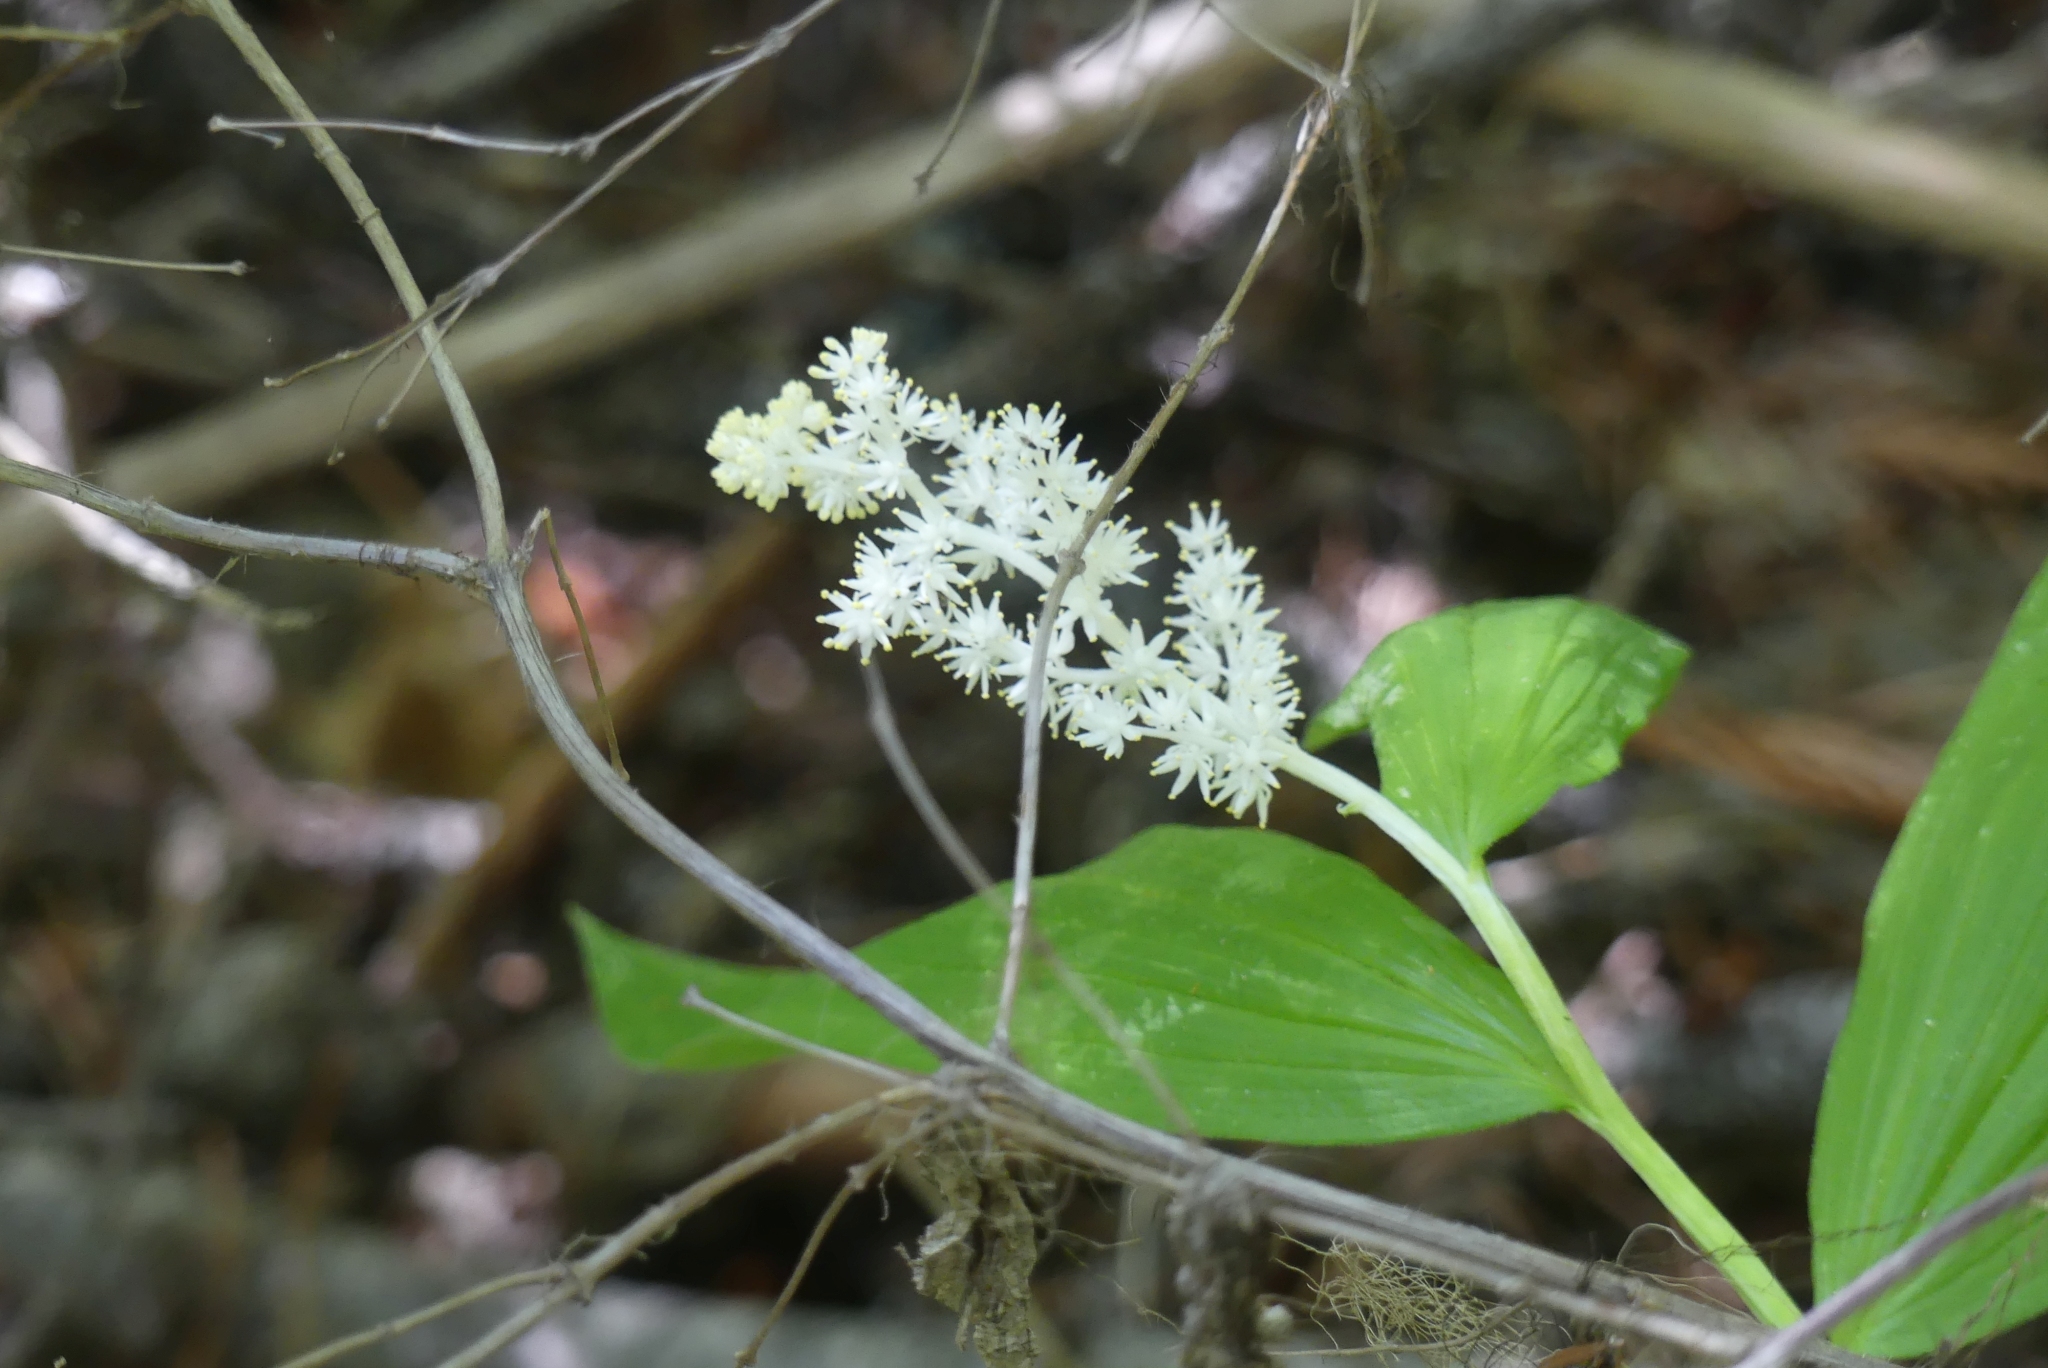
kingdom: Plantae
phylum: Tracheophyta
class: Liliopsida
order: Asparagales
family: Asparagaceae
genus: Maianthemum
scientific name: Maianthemum racemosum
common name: False spikenard
